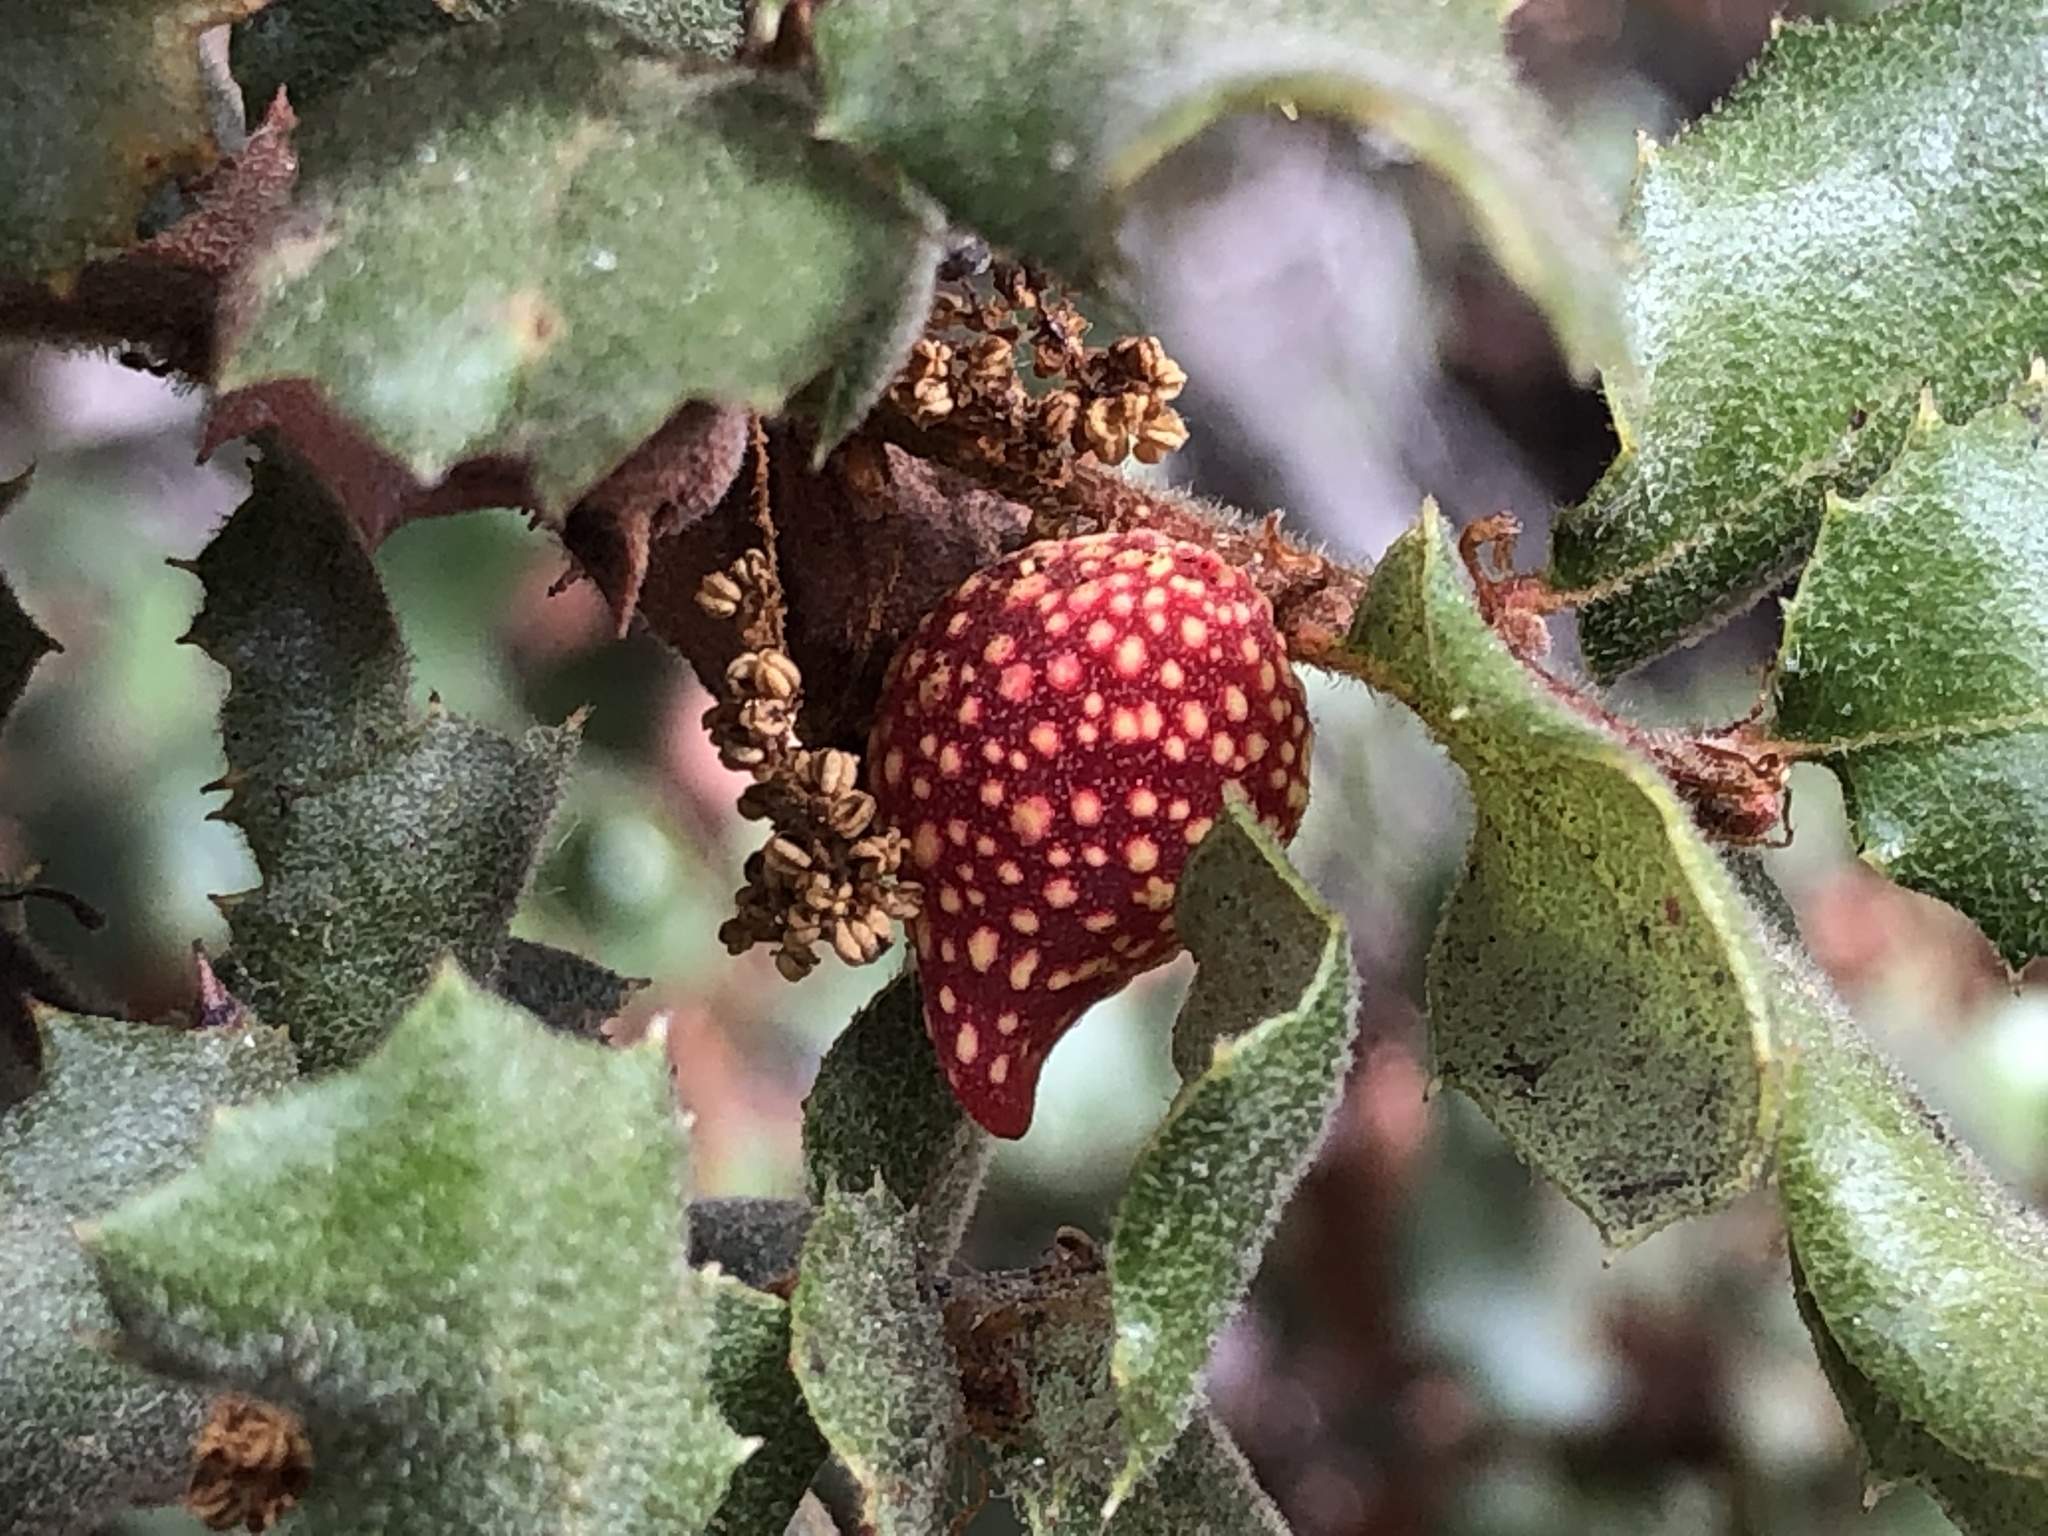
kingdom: Animalia
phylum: Arthropoda
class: Insecta
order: Hymenoptera
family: Cynipidae
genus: Burnettweldia
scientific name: Burnettweldia
